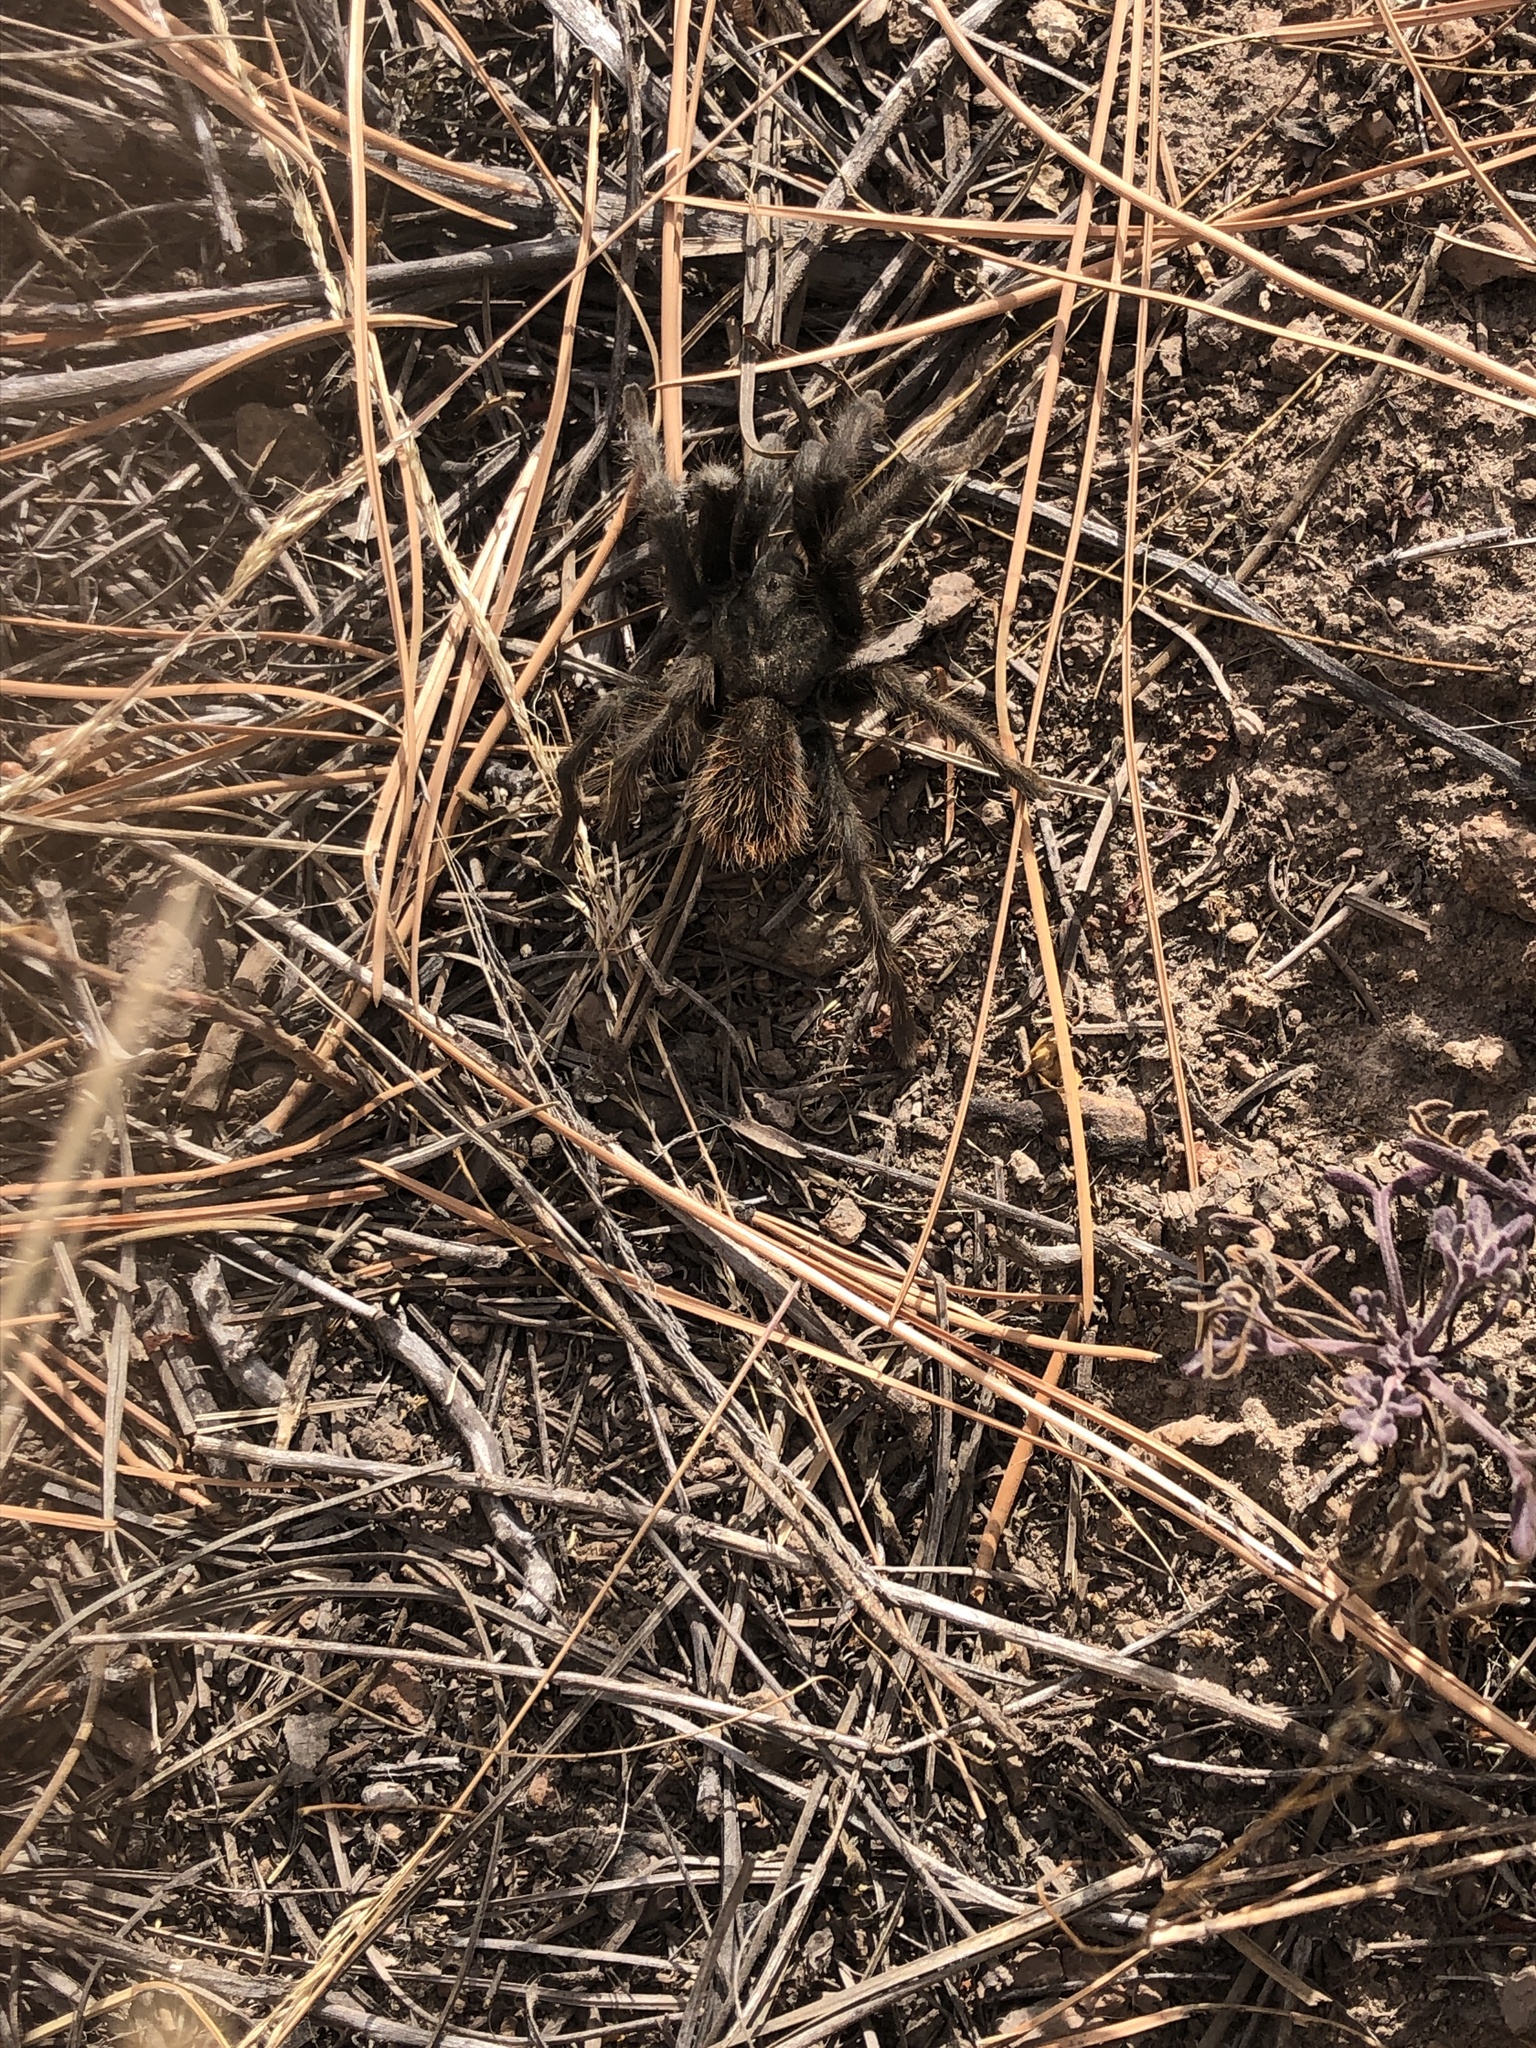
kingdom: Animalia
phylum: Arthropoda
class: Arachnida
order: Araneae
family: Theraphosidae
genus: Aphonopelma
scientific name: Aphonopelma marxi
